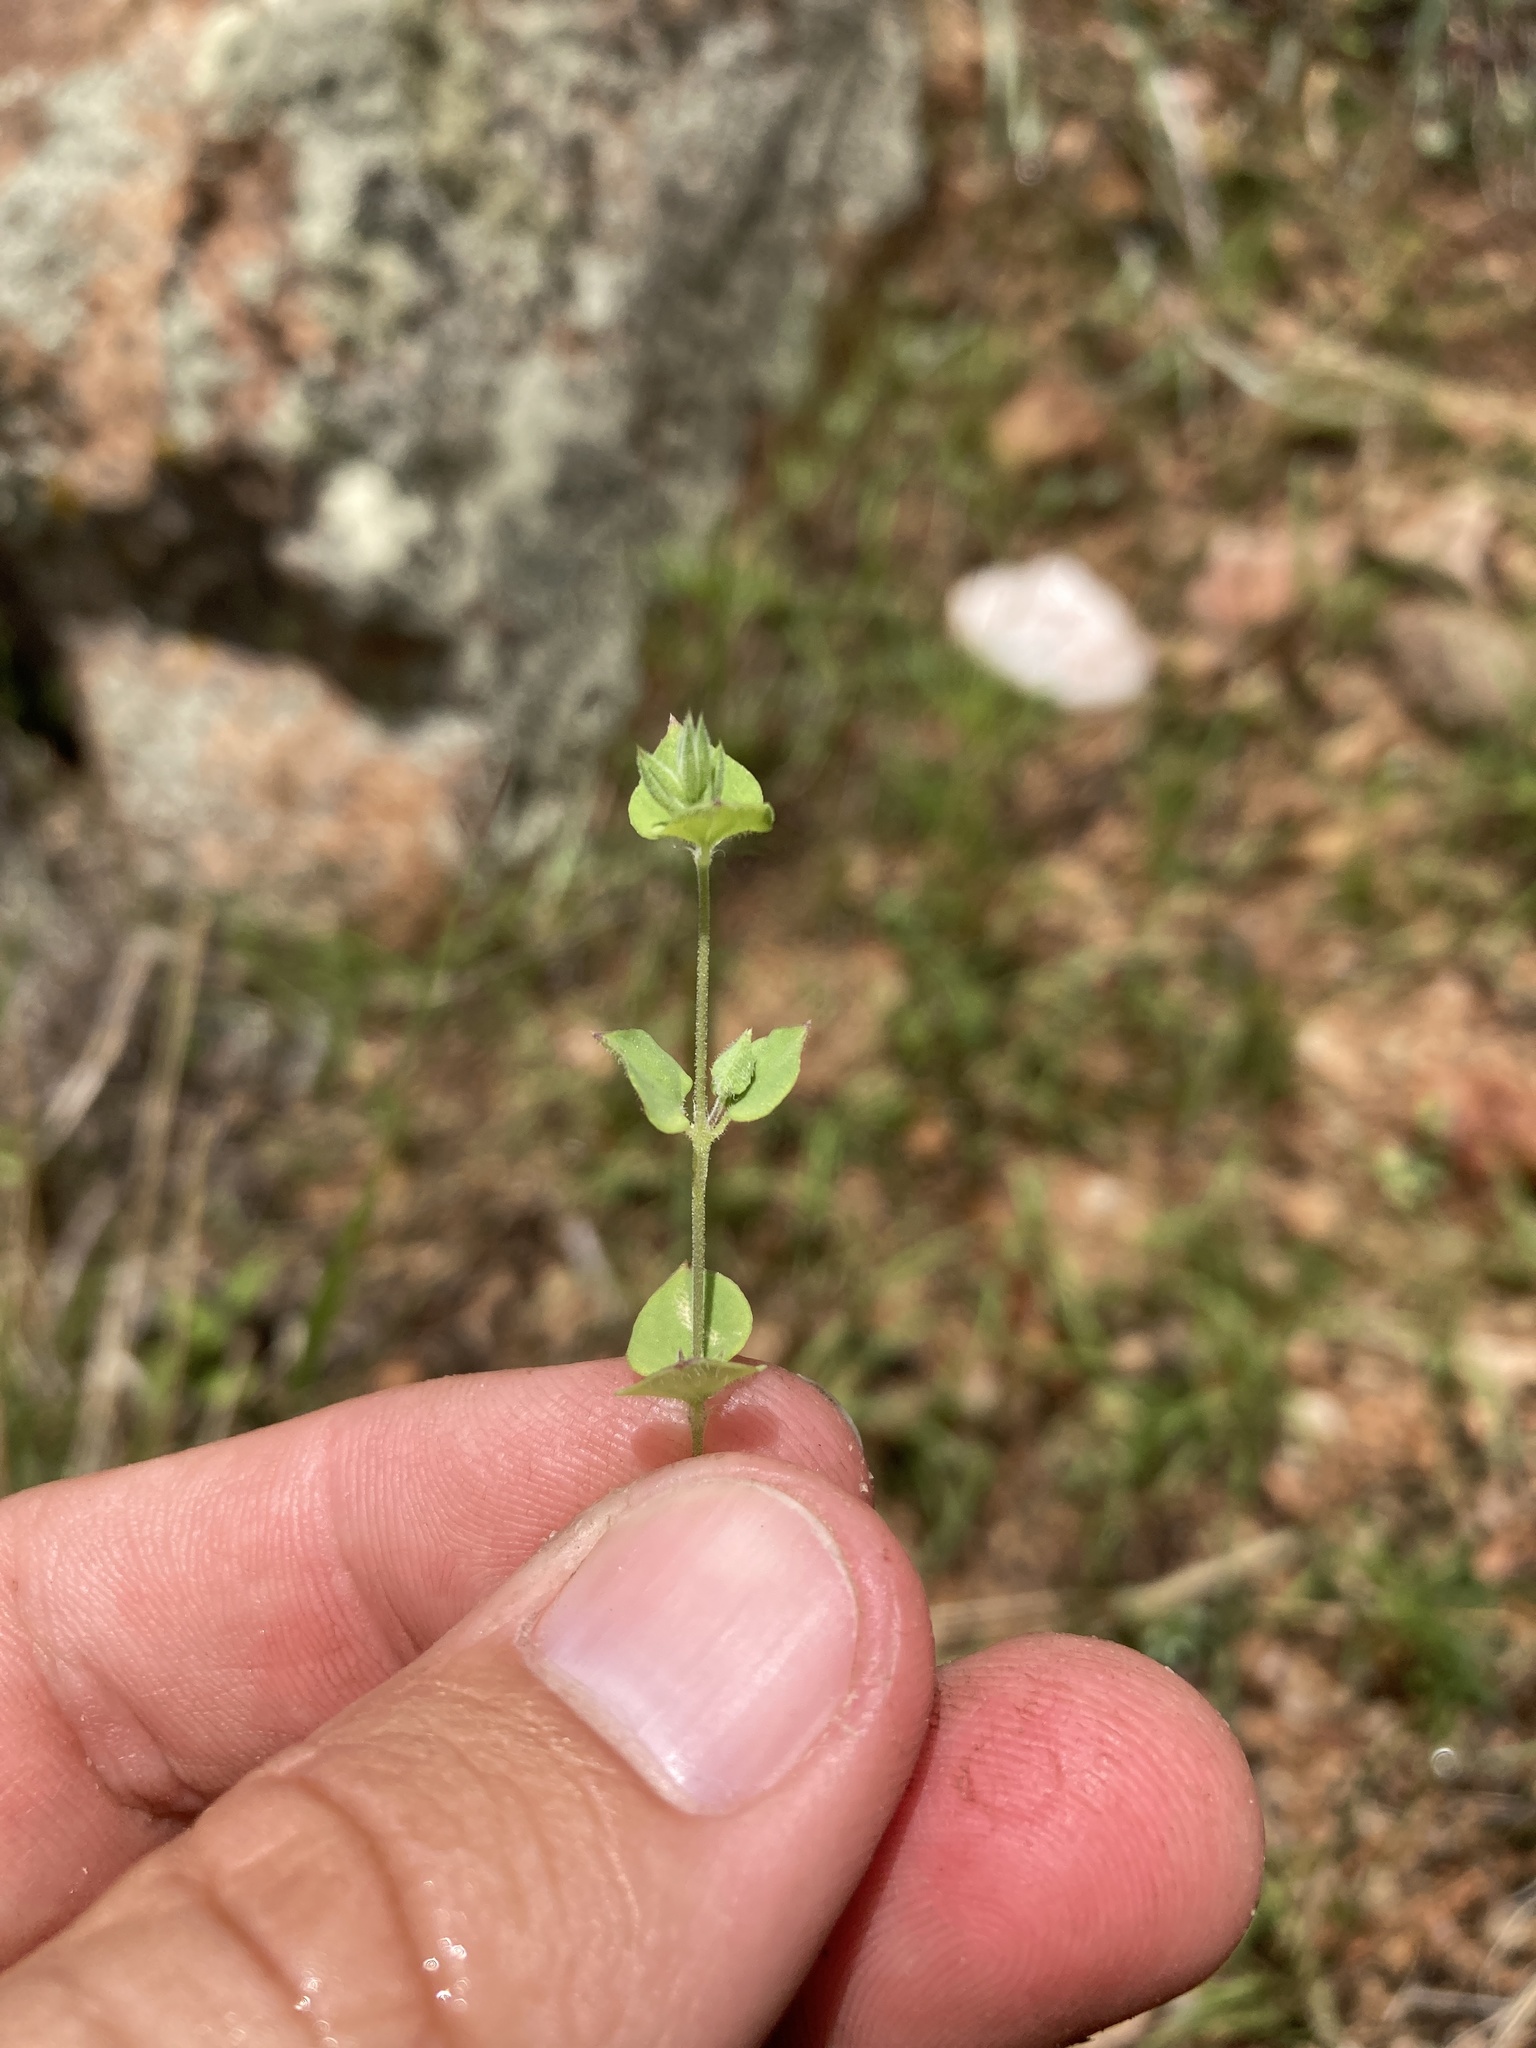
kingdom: Plantae
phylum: Tracheophyta
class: Magnoliopsida
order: Caryophyllales
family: Caryophyllaceae
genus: Drymaria
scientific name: Drymaria glandulosa
